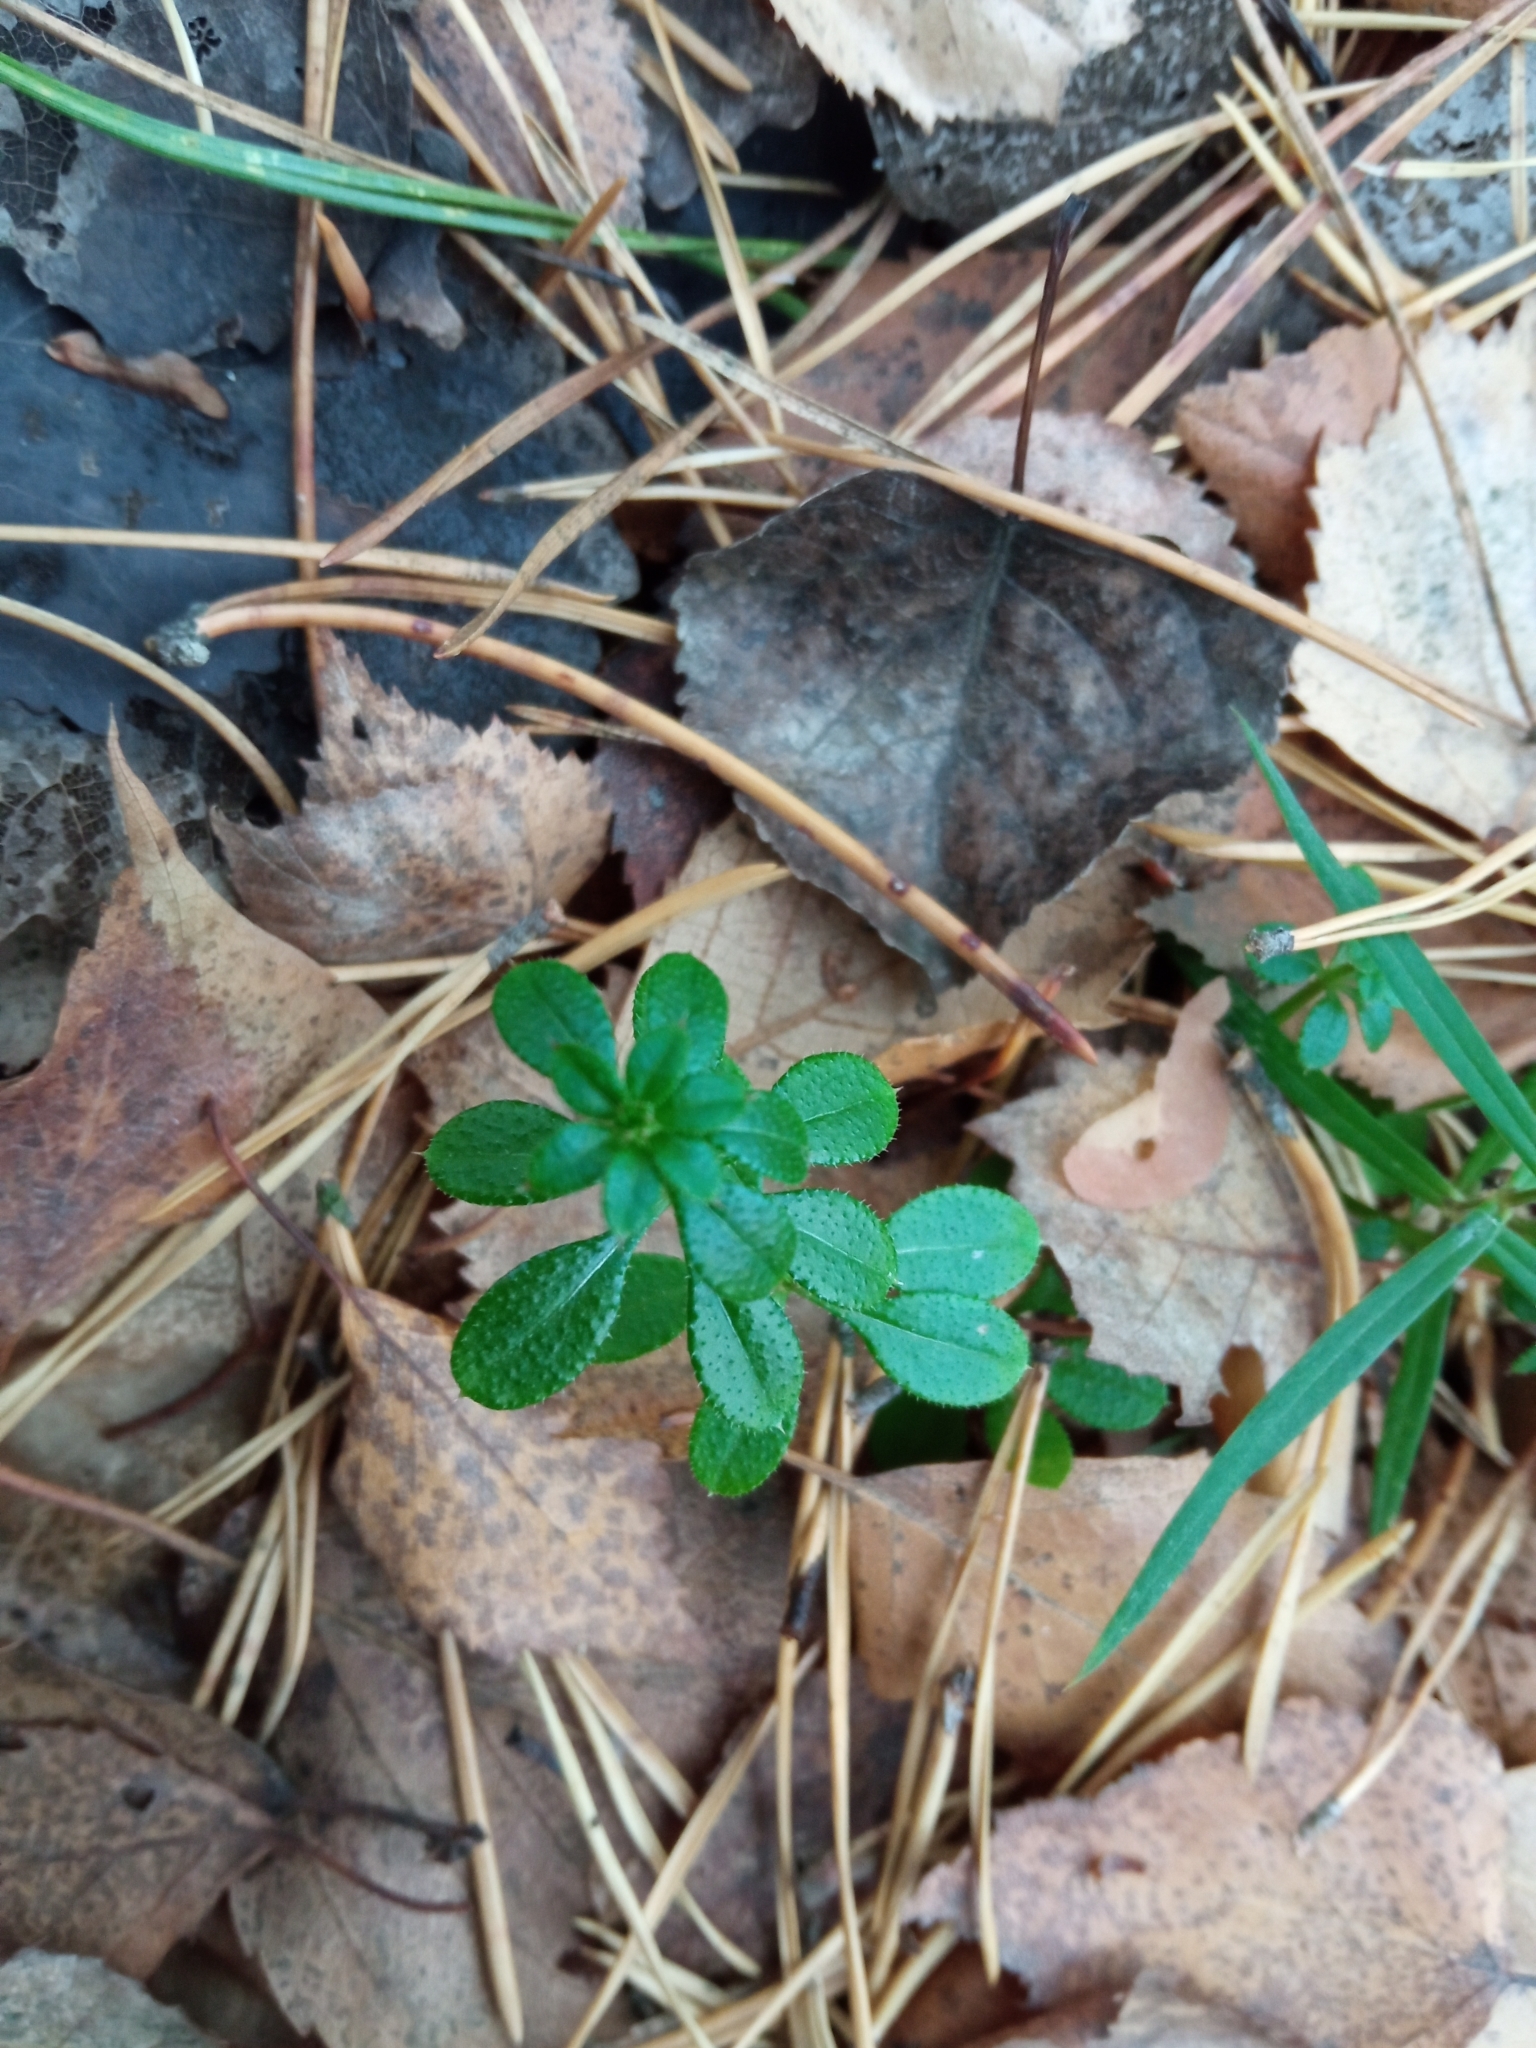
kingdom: Plantae
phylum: Tracheophyta
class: Magnoliopsida
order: Gentianales
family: Rubiaceae
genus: Galium
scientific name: Galium aparine
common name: Cleavers
